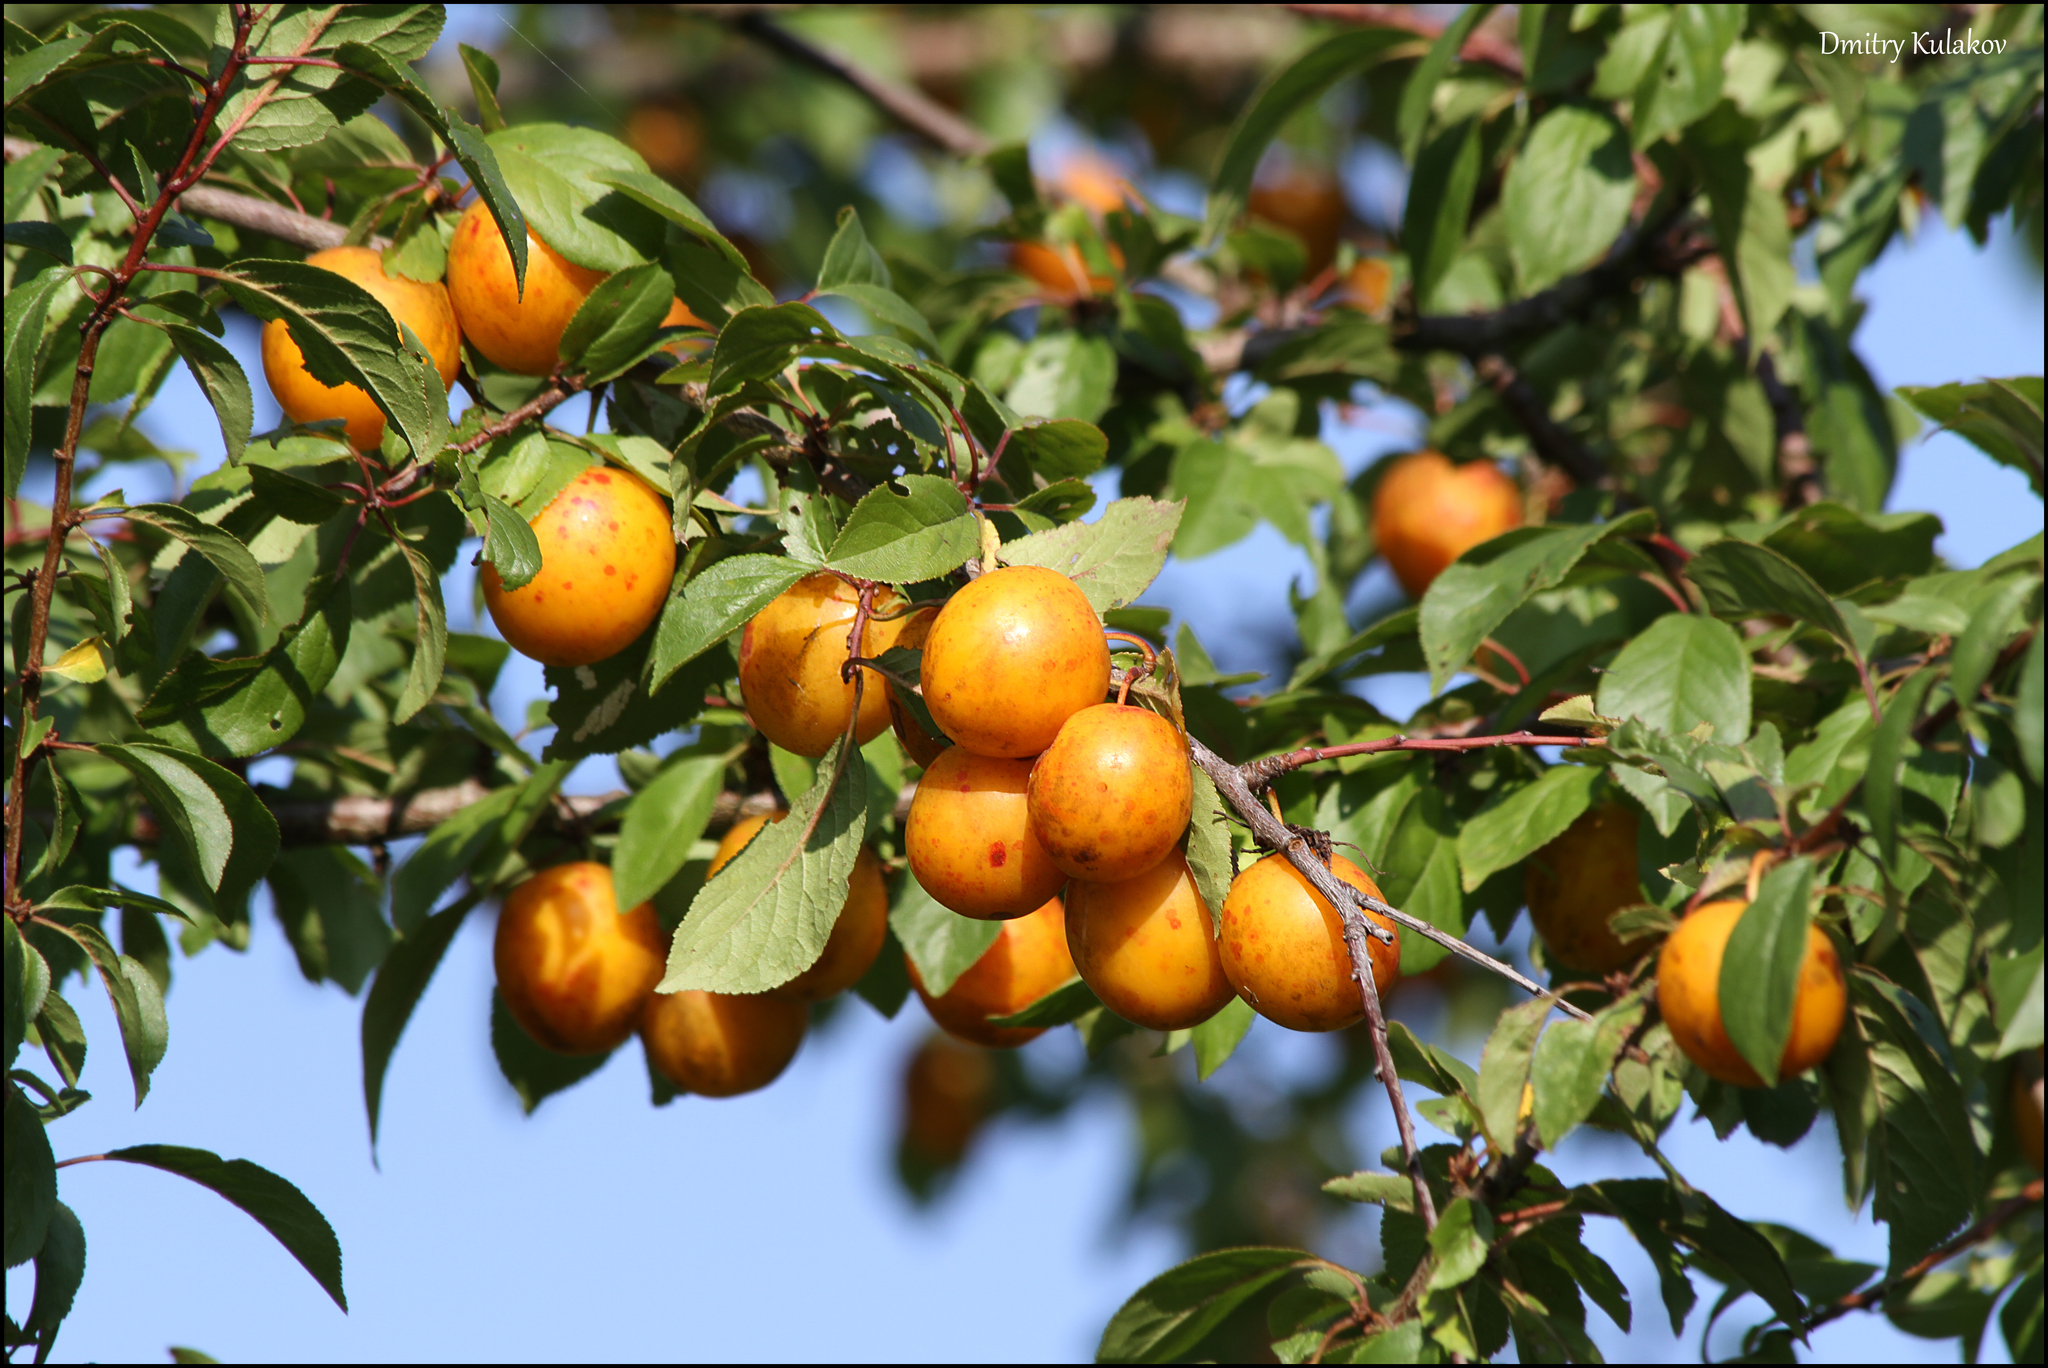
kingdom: Plantae
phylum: Tracheophyta
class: Magnoliopsida
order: Rosales
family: Rosaceae
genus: Prunus
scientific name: Prunus cerasifera
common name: Cherry plum
